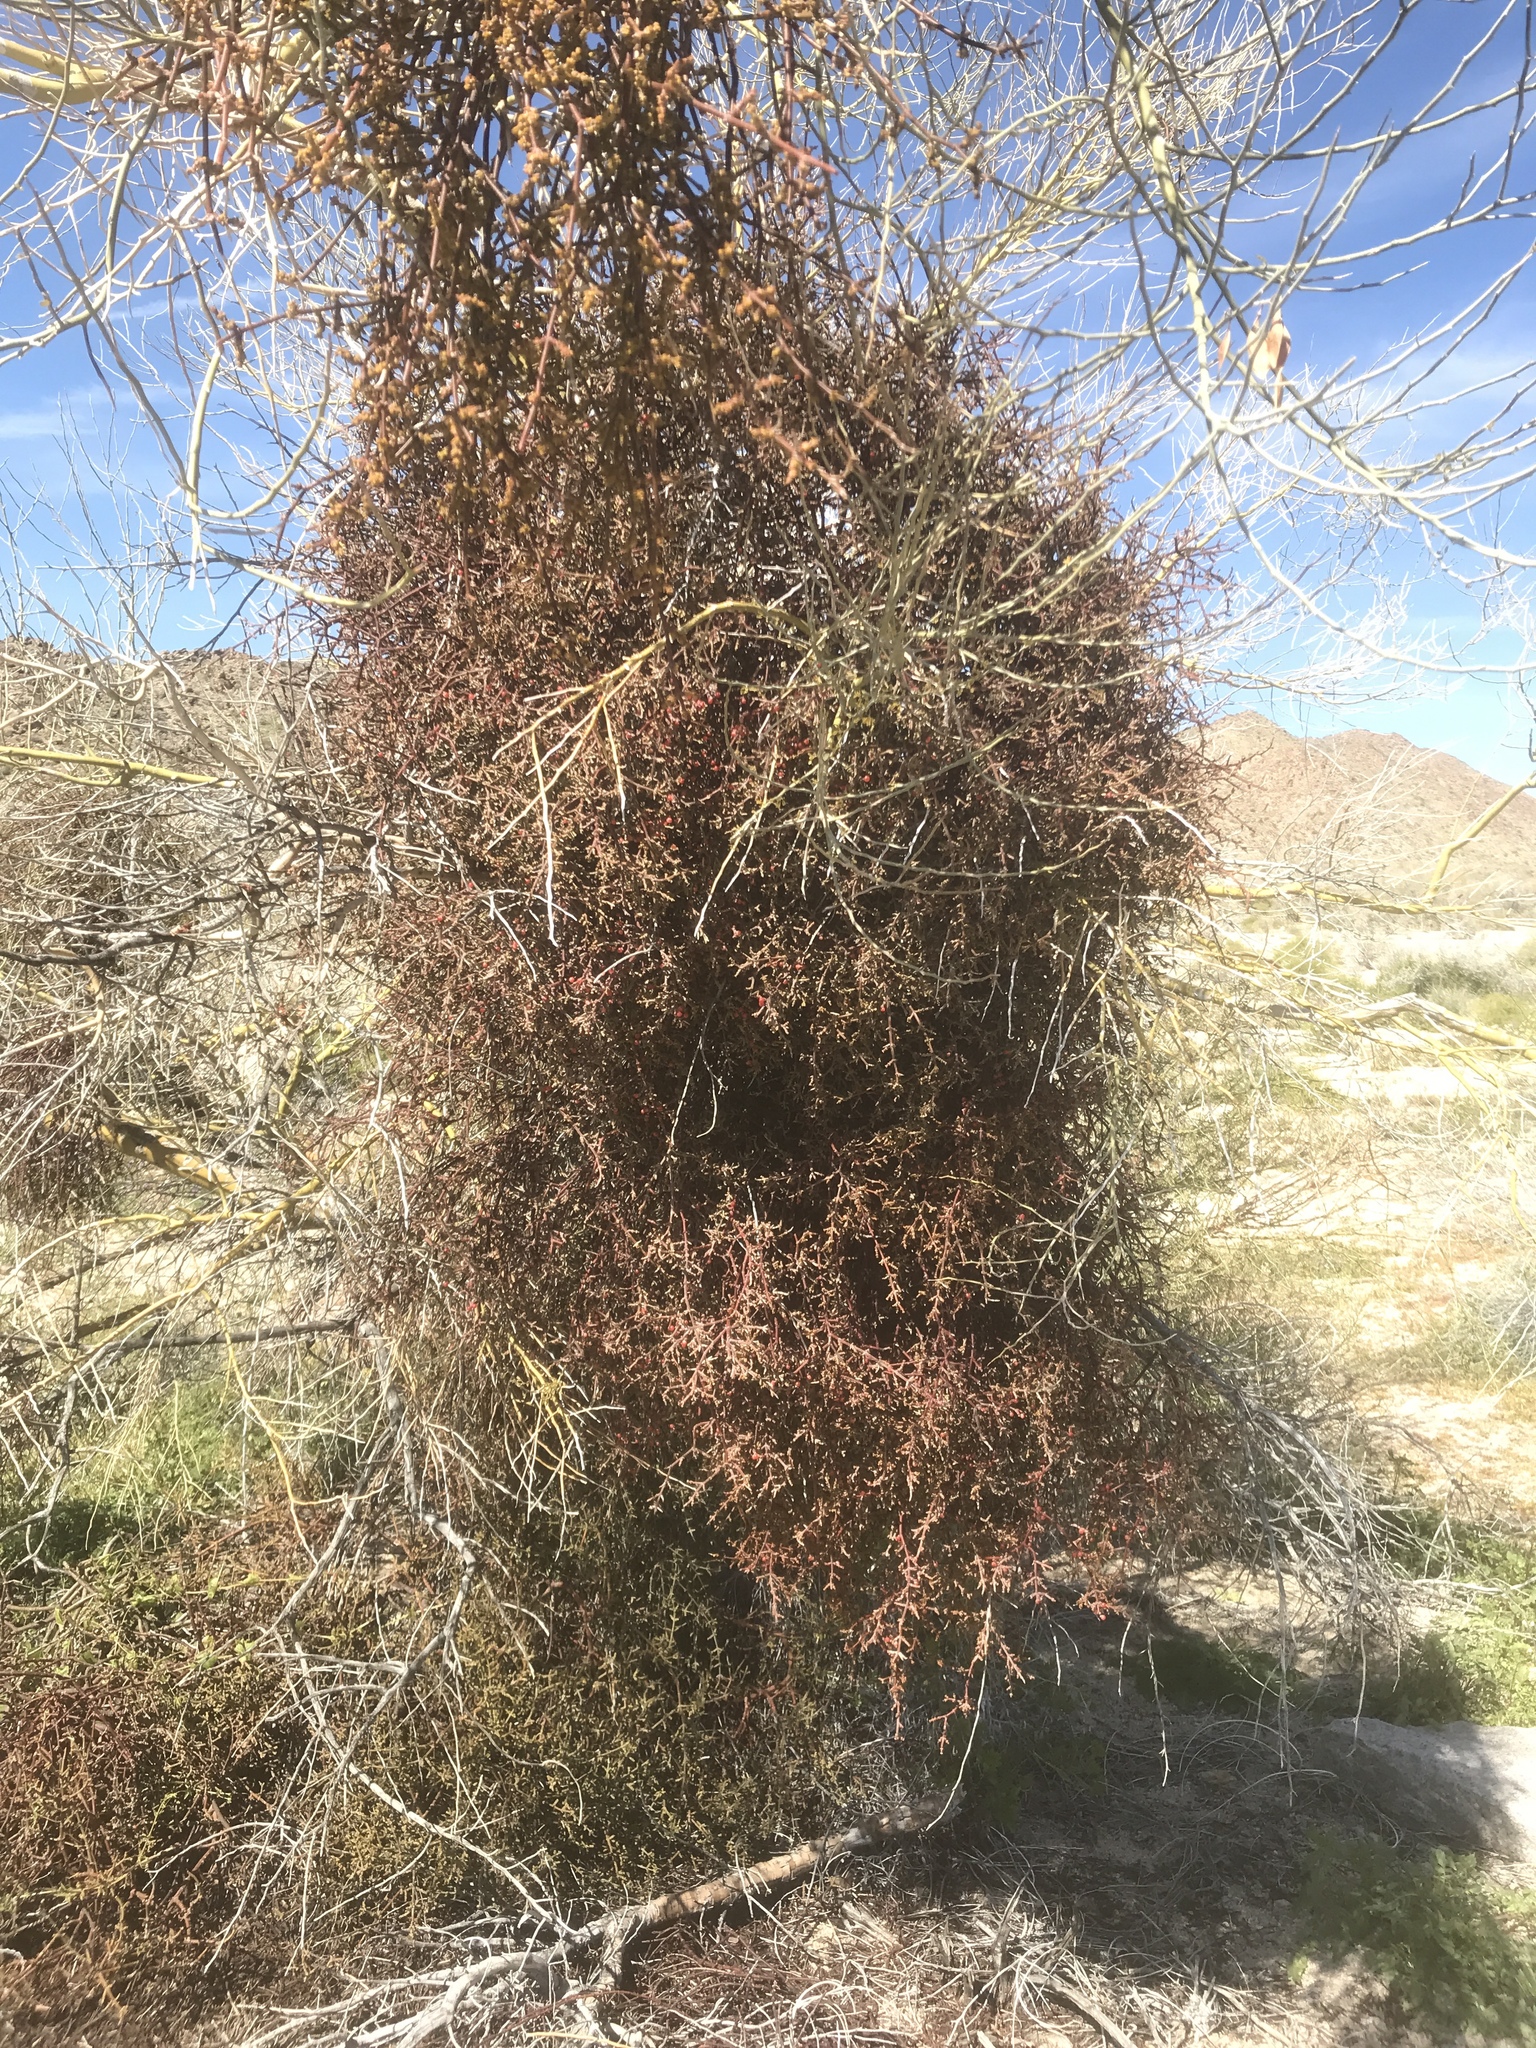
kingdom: Plantae
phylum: Tracheophyta
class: Magnoliopsida
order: Santalales
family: Viscaceae
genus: Phoradendron
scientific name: Phoradendron californicum
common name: Acacia mistletoe
